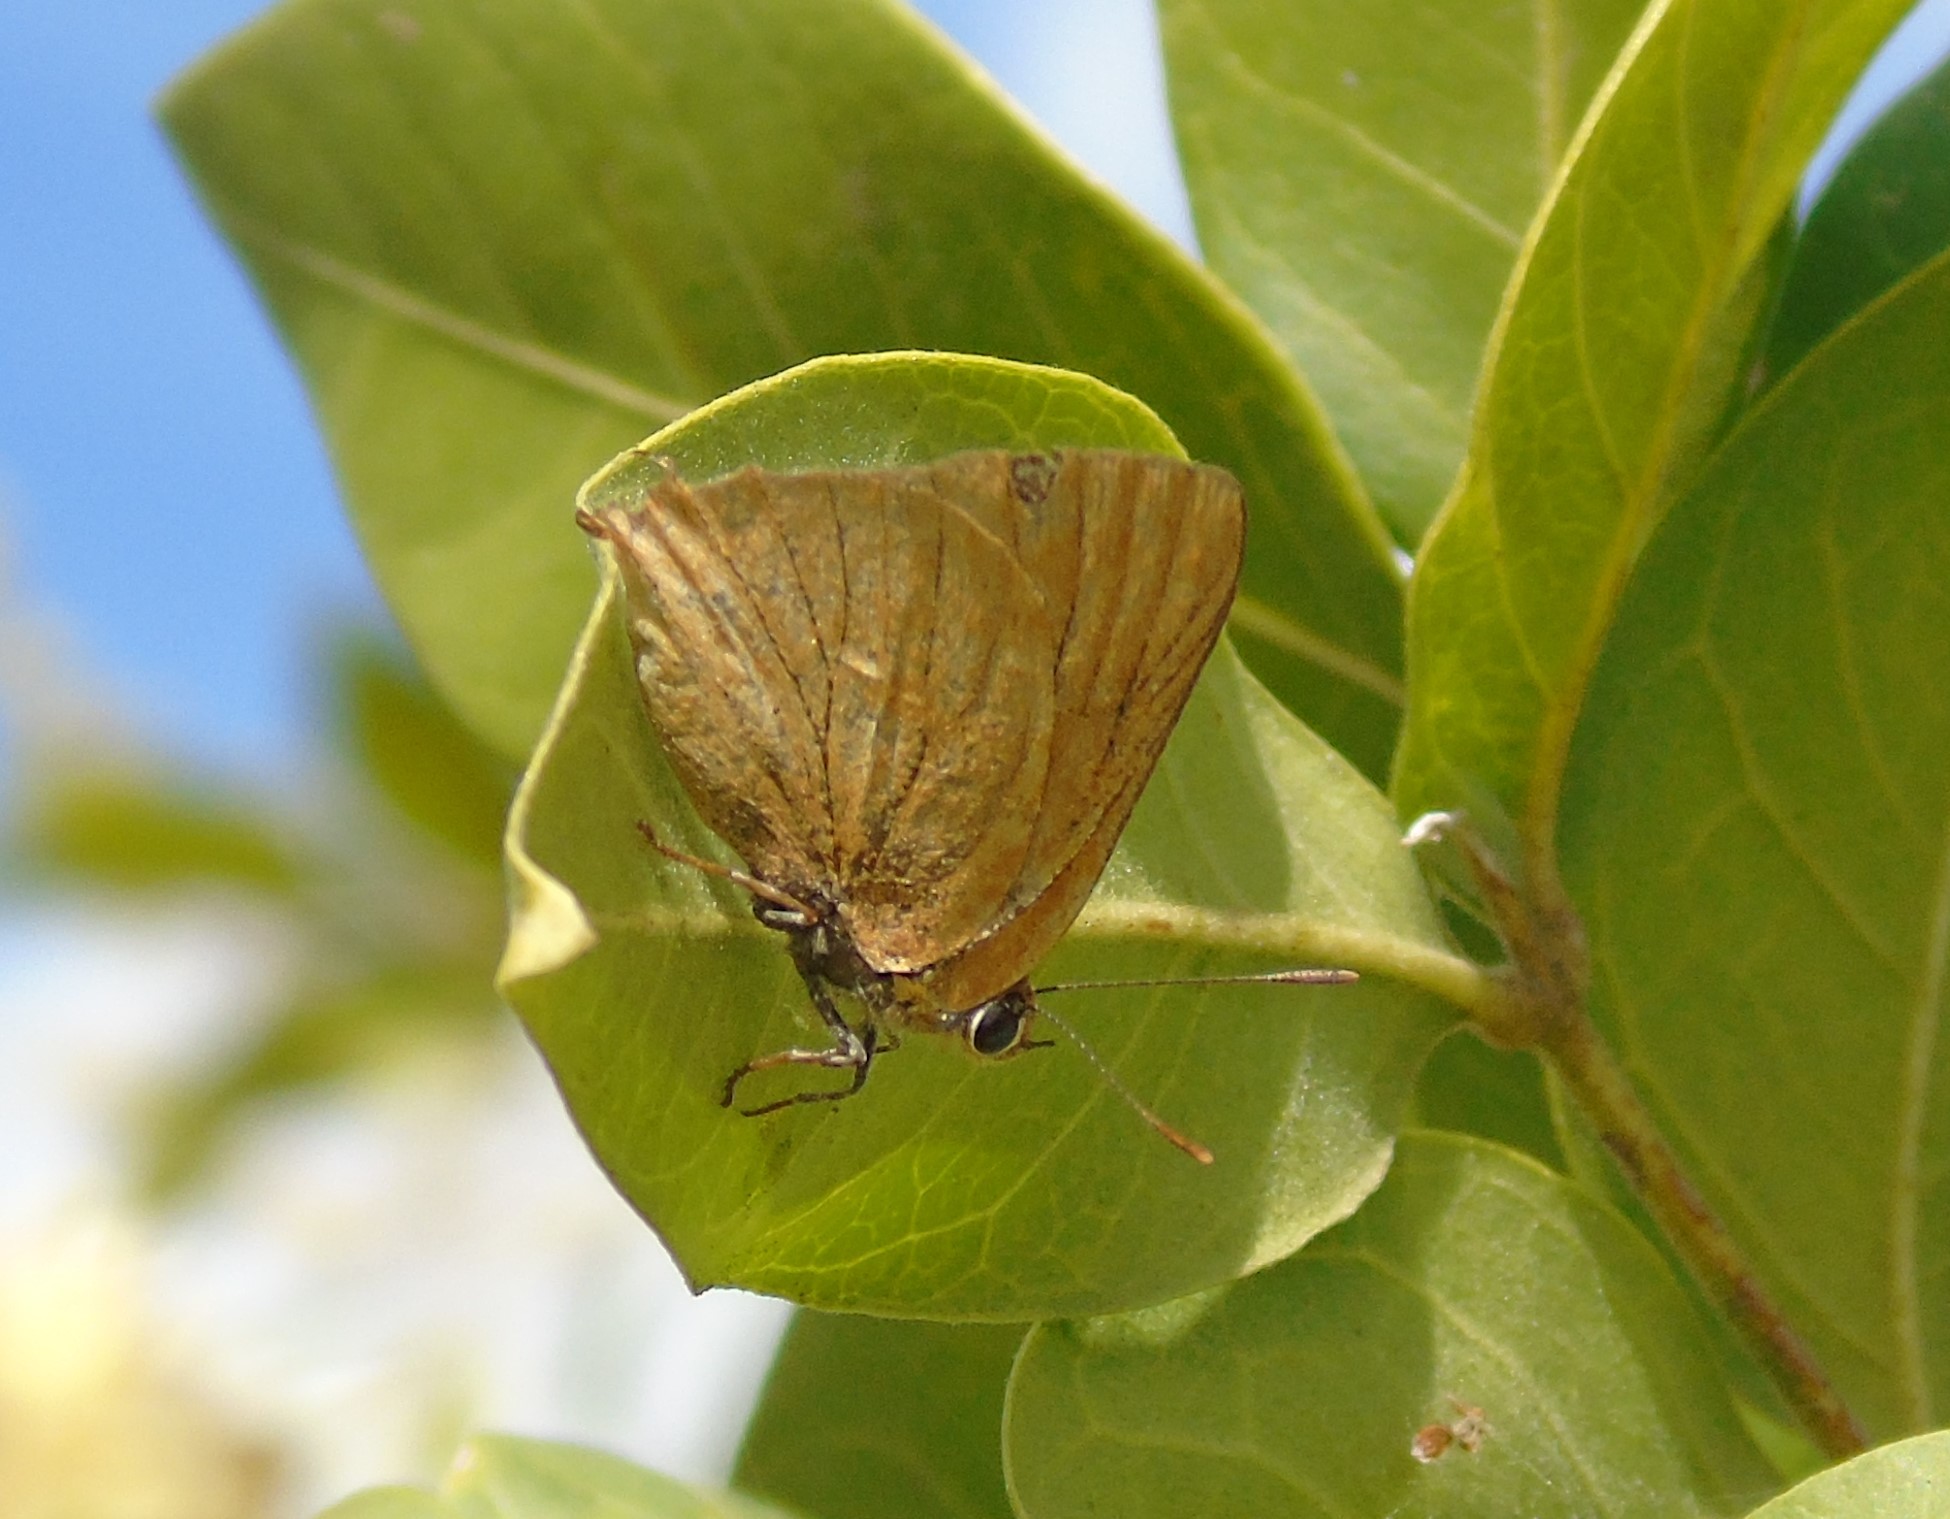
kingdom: Animalia
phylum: Arthropoda
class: Insecta
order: Lepidoptera
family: Lycaenidae
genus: Cyanophrys
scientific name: Cyanophrys
